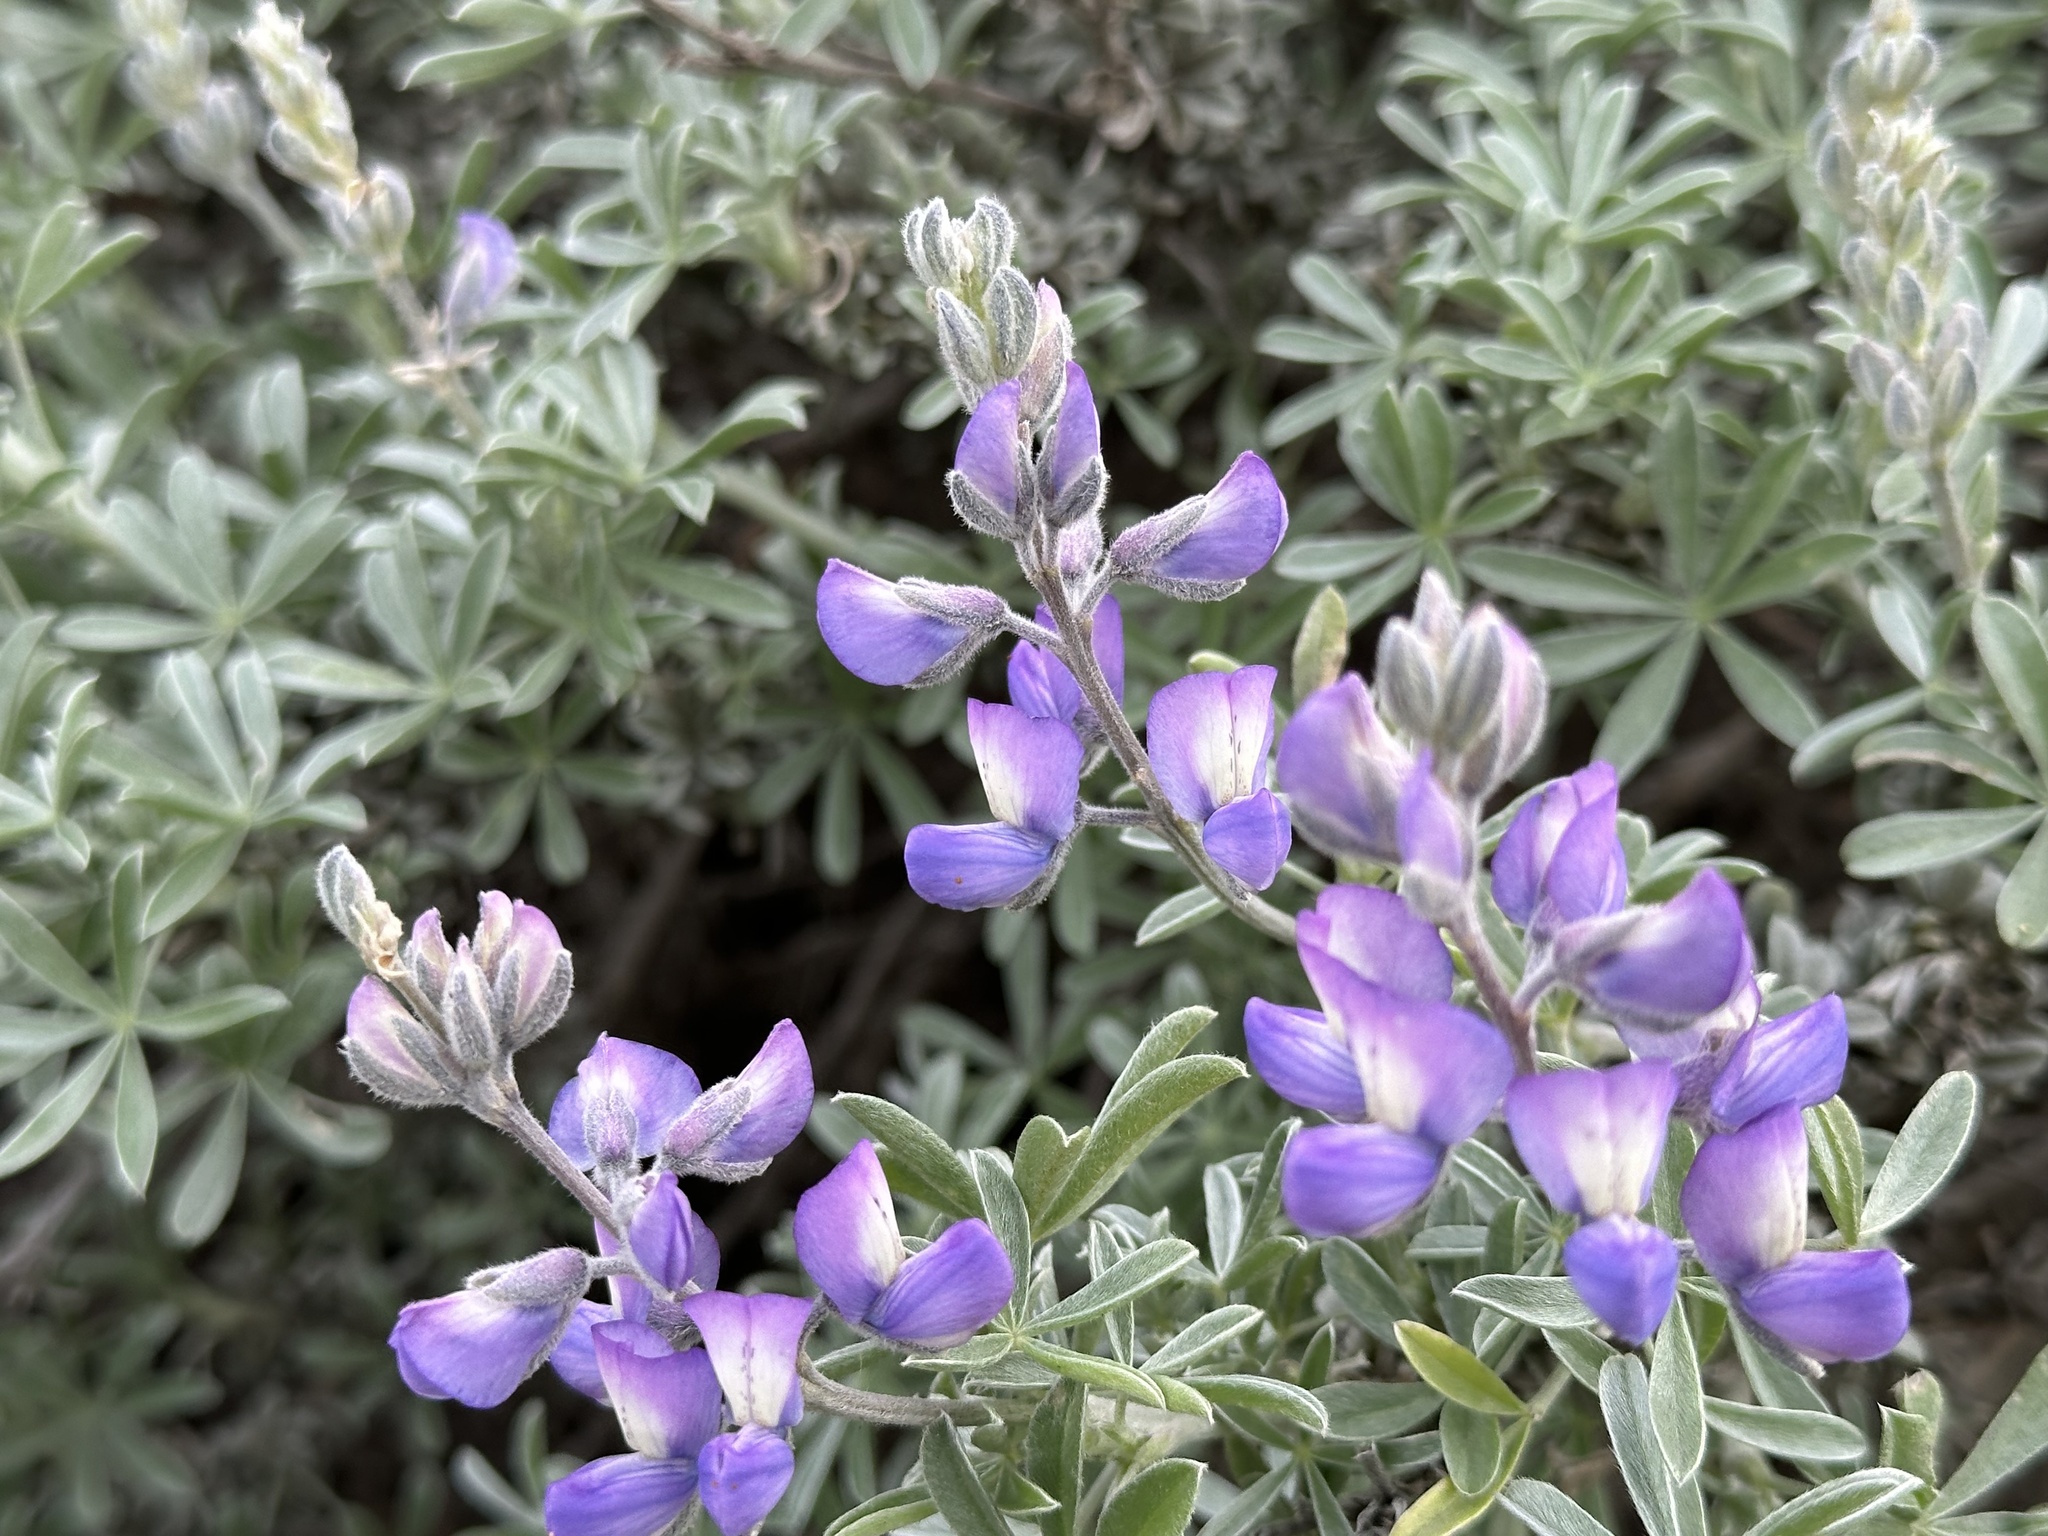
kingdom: Plantae
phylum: Tracheophyta
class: Magnoliopsida
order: Fabales
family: Fabaceae
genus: Lupinus
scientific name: Lupinus chamissonis
